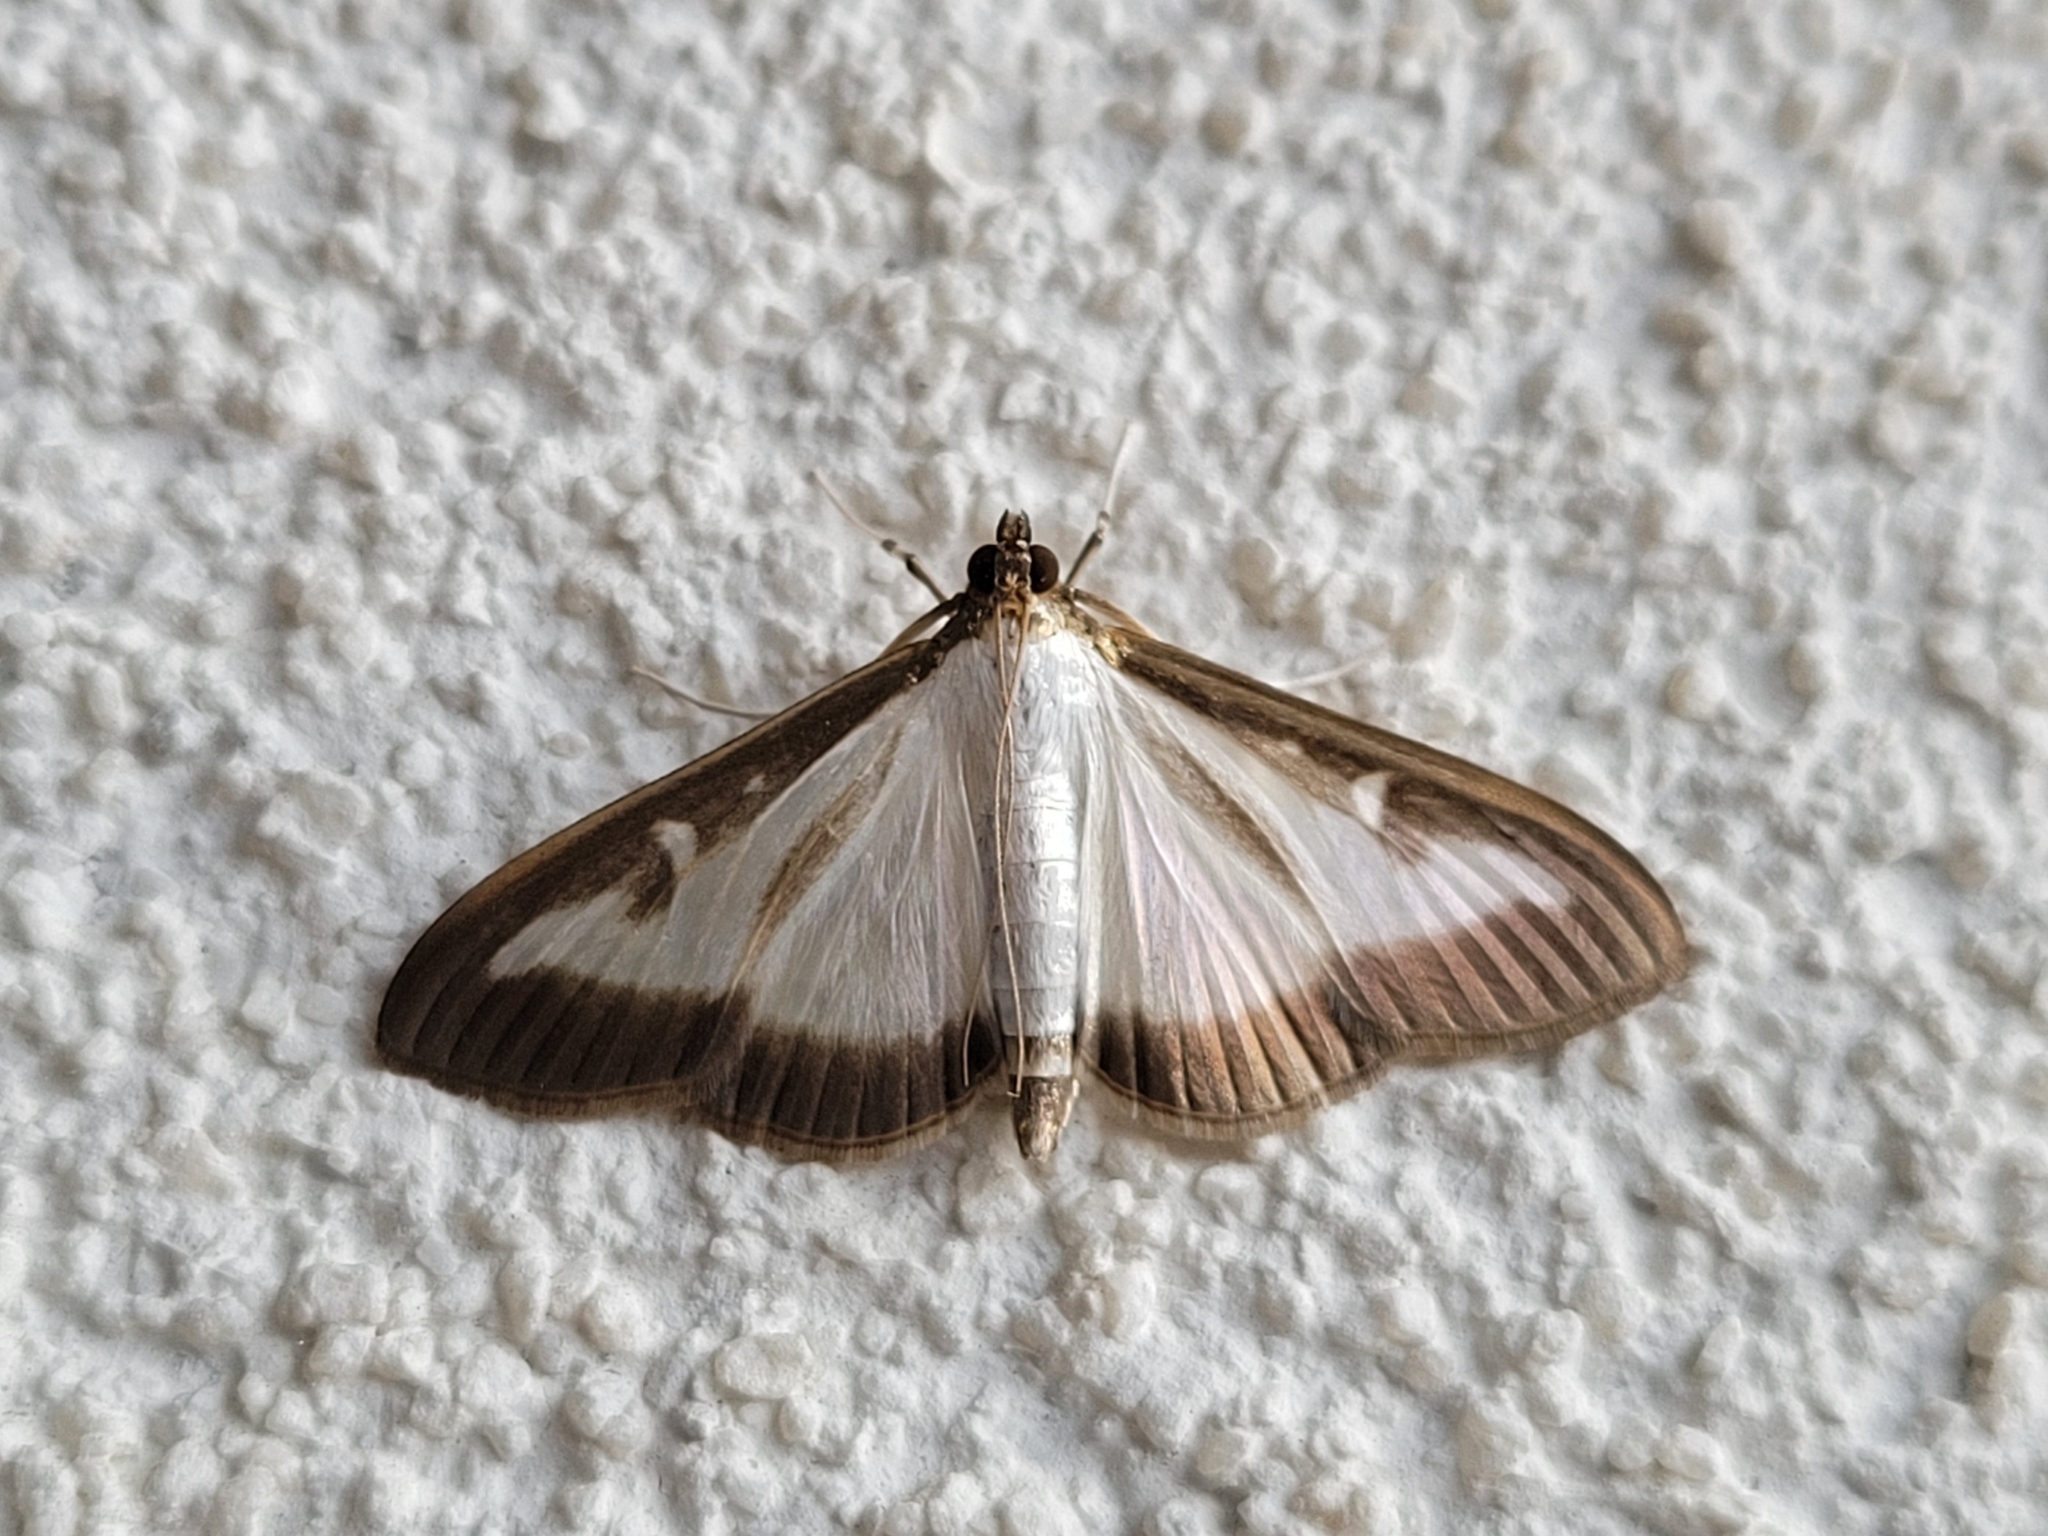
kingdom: Animalia
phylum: Arthropoda
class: Insecta
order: Lepidoptera
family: Crambidae
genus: Cydalima
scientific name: Cydalima perspectalis
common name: Box tree moth
